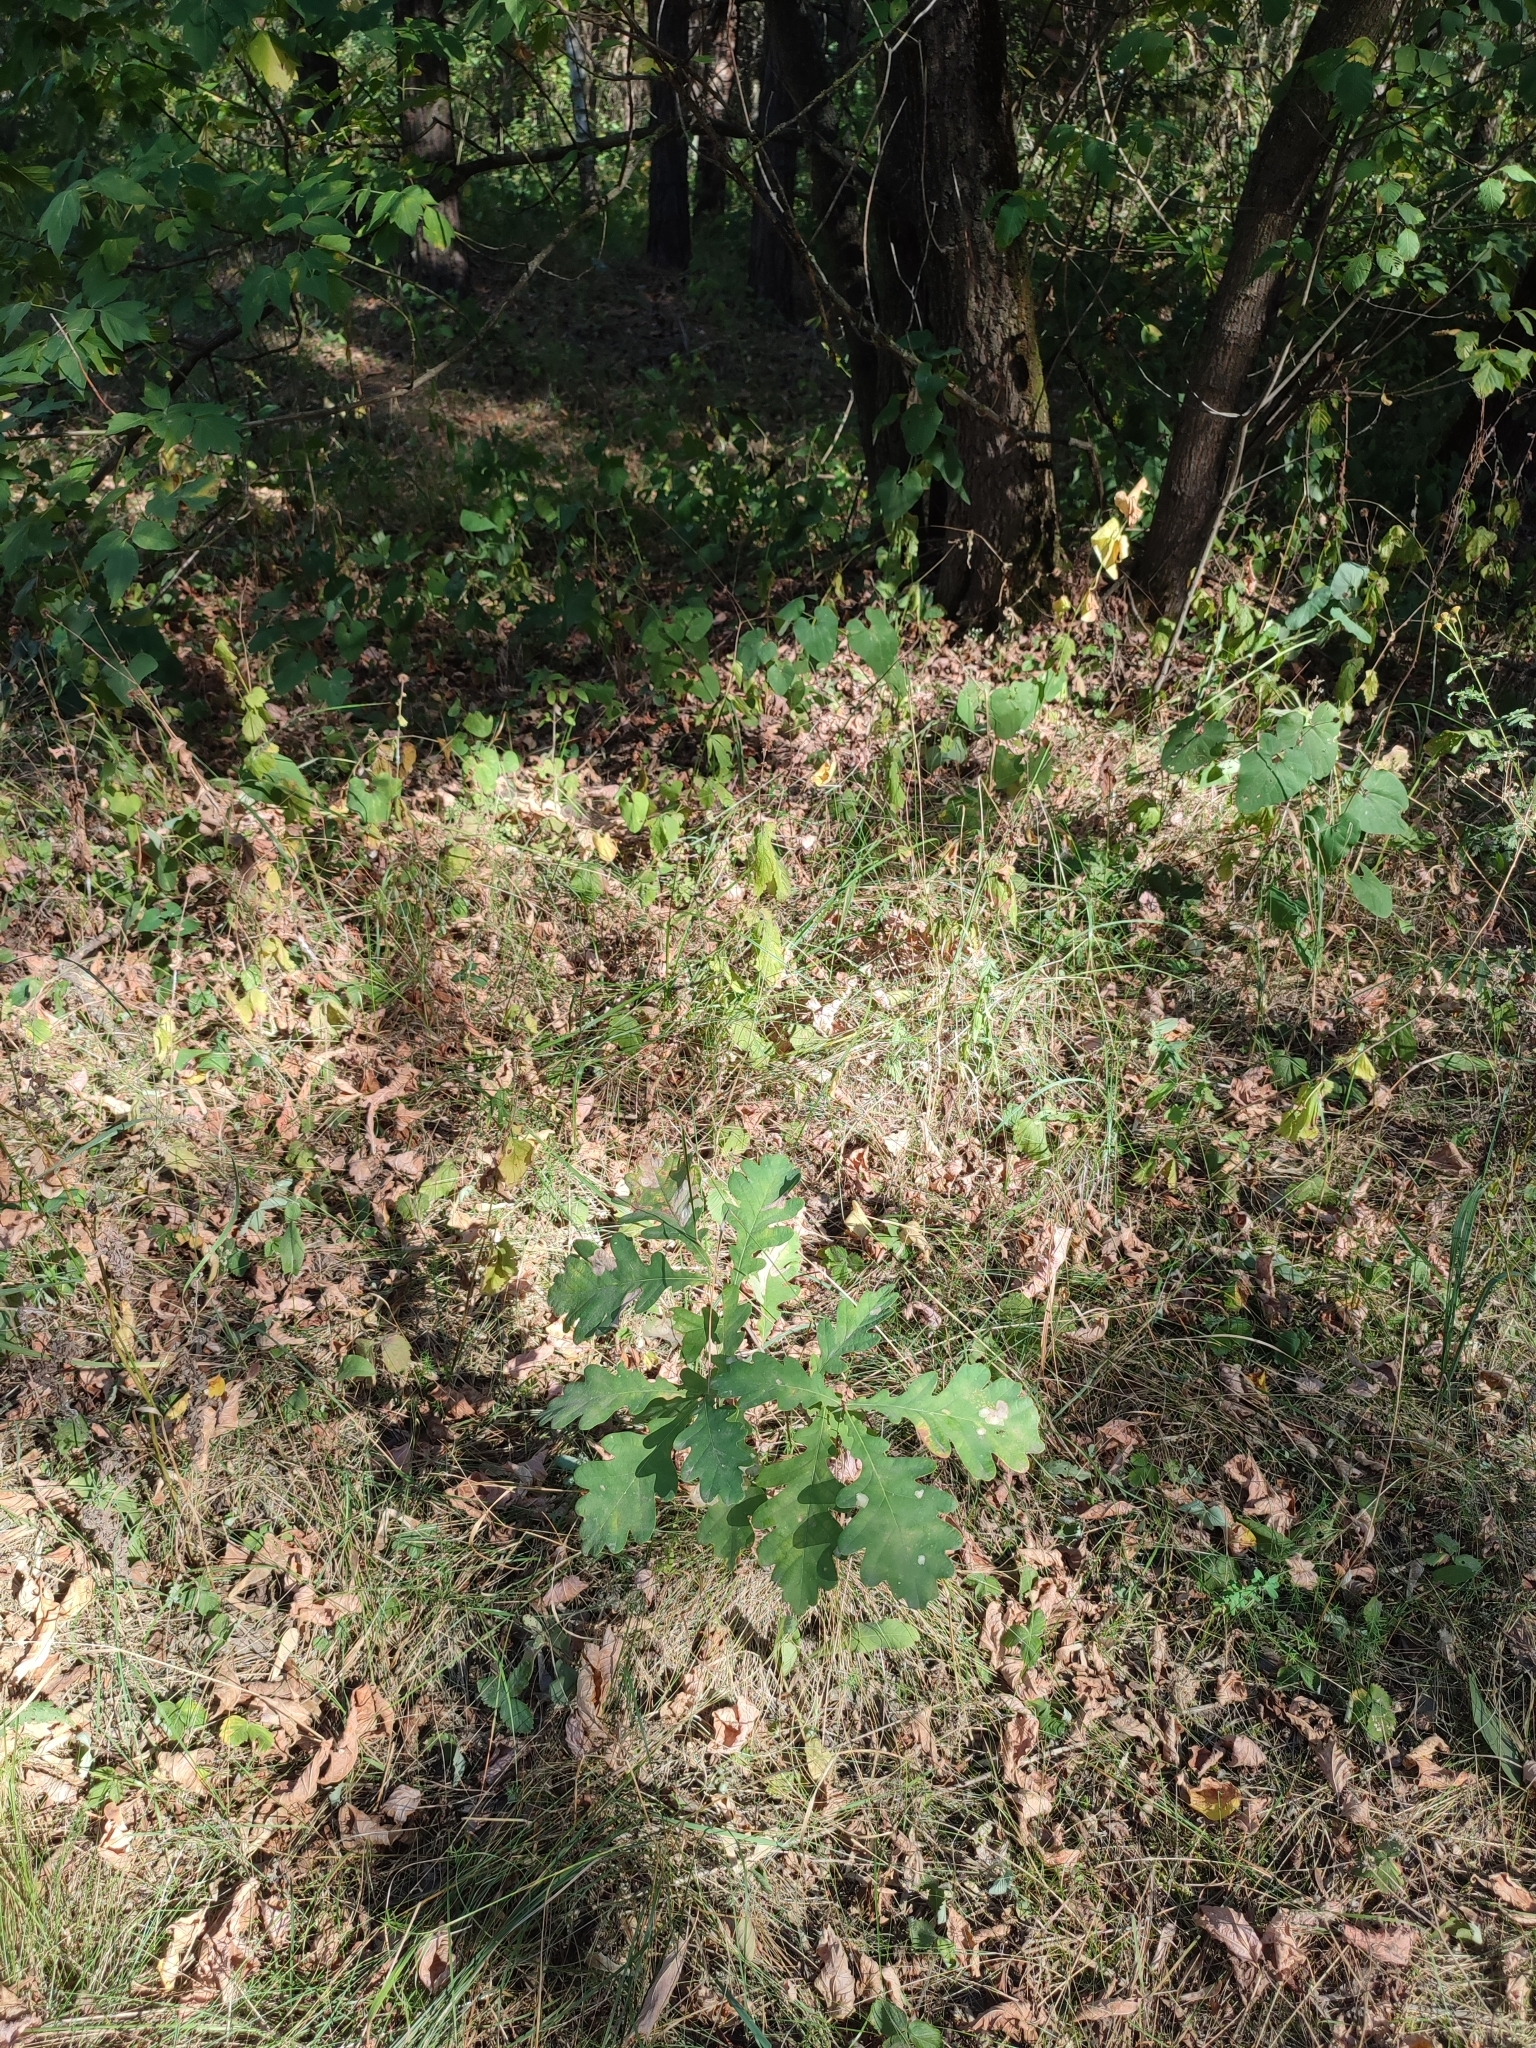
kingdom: Plantae
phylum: Tracheophyta
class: Magnoliopsida
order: Fagales
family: Fagaceae
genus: Quercus
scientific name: Quercus robur
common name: Pedunculate oak
